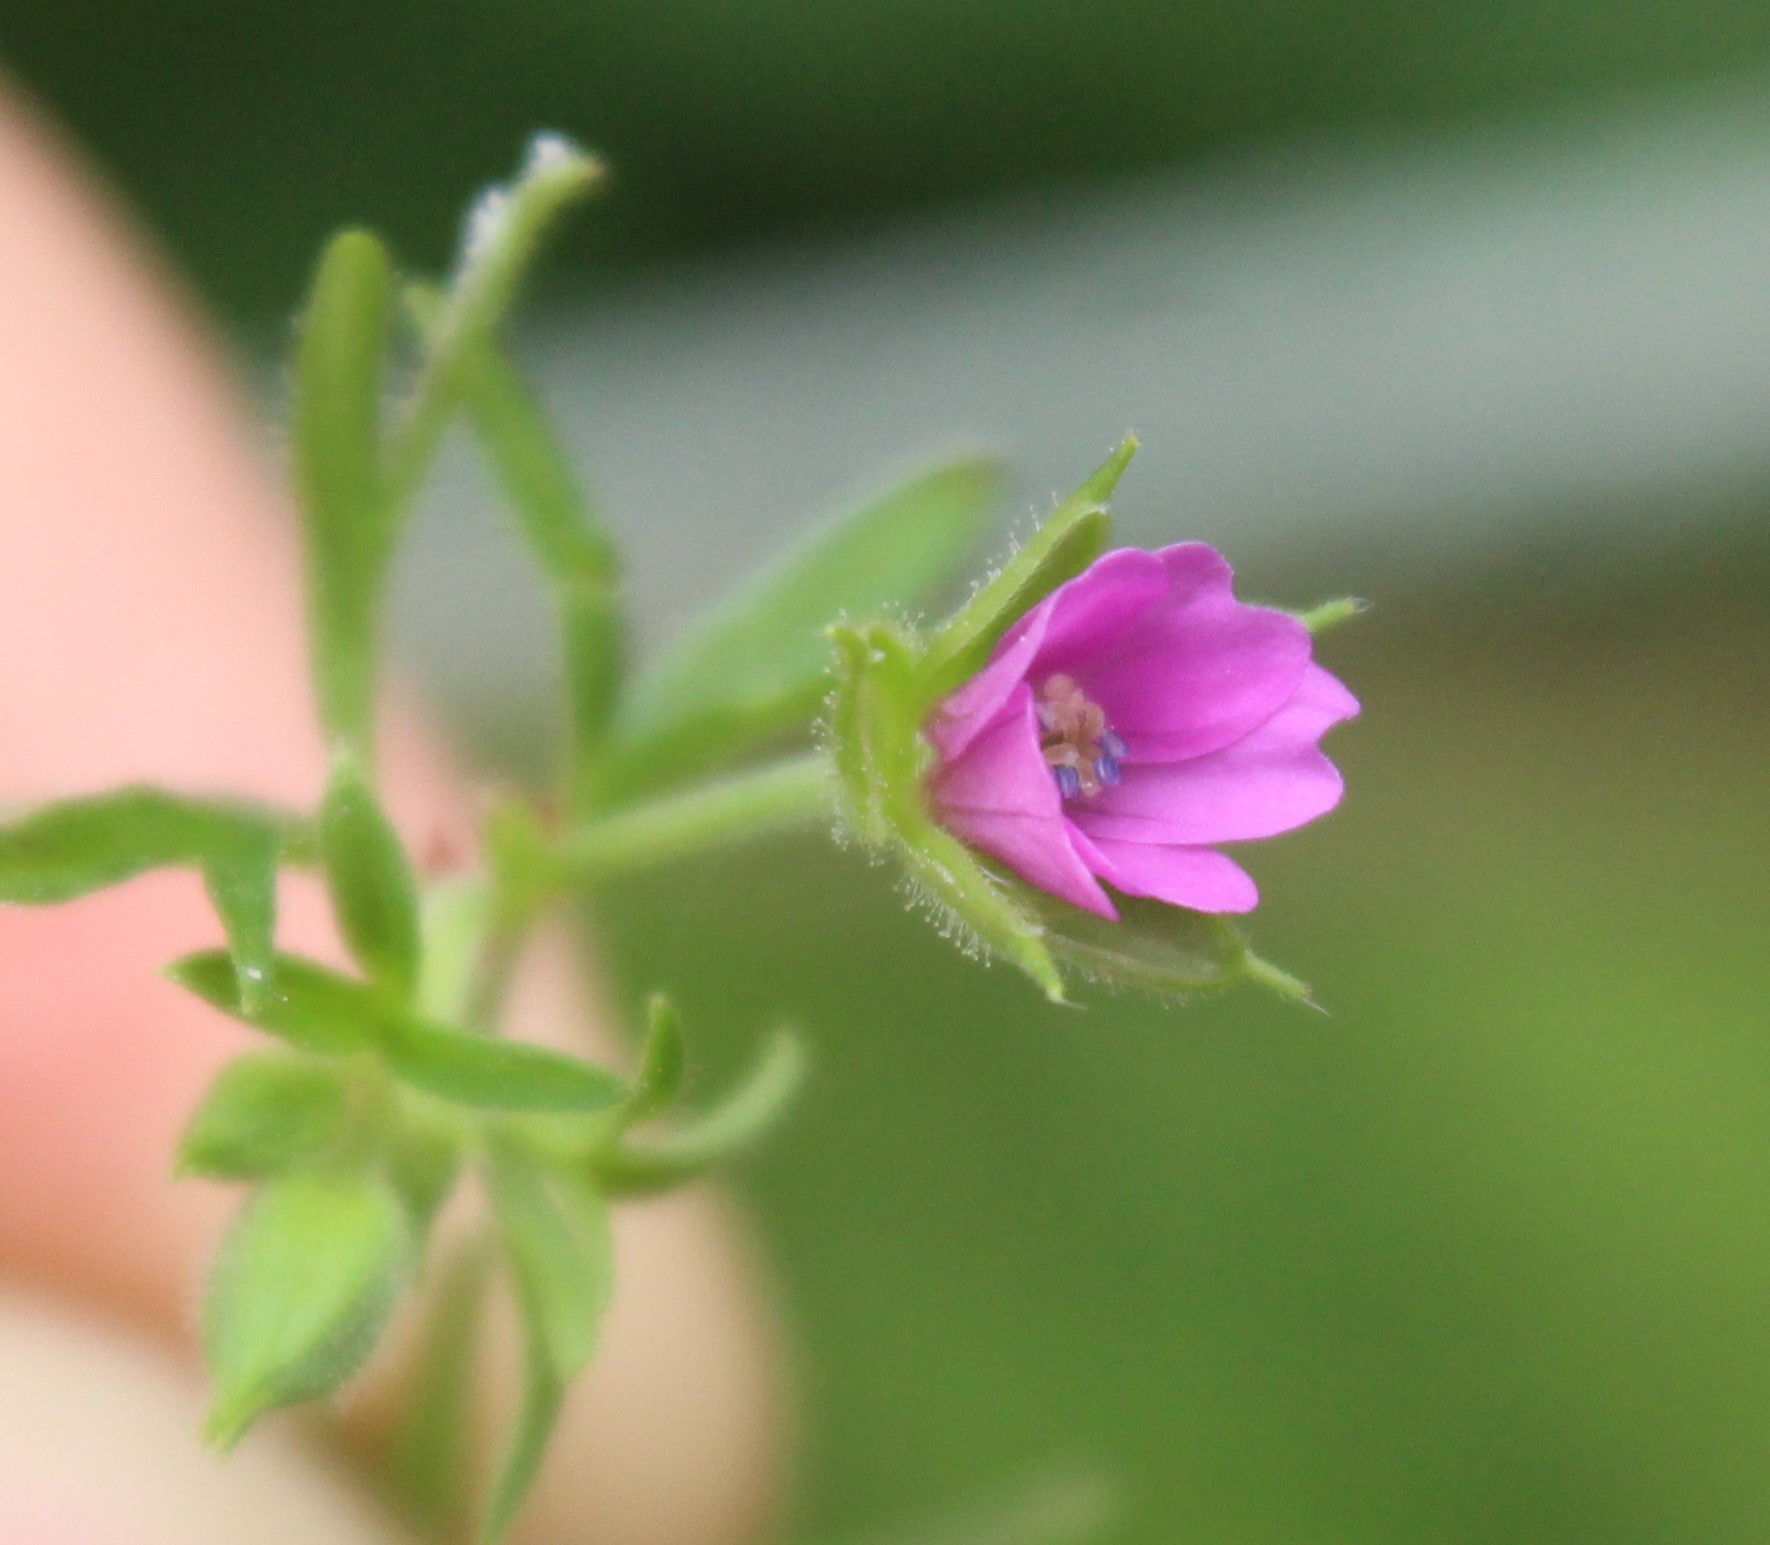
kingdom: Plantae
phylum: Tracheophyta
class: Magnoliopsida
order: Geraniales
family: Geraniaceae
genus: Geranium
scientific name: Geranium dissectum
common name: Cut-leaved crane's-bill
